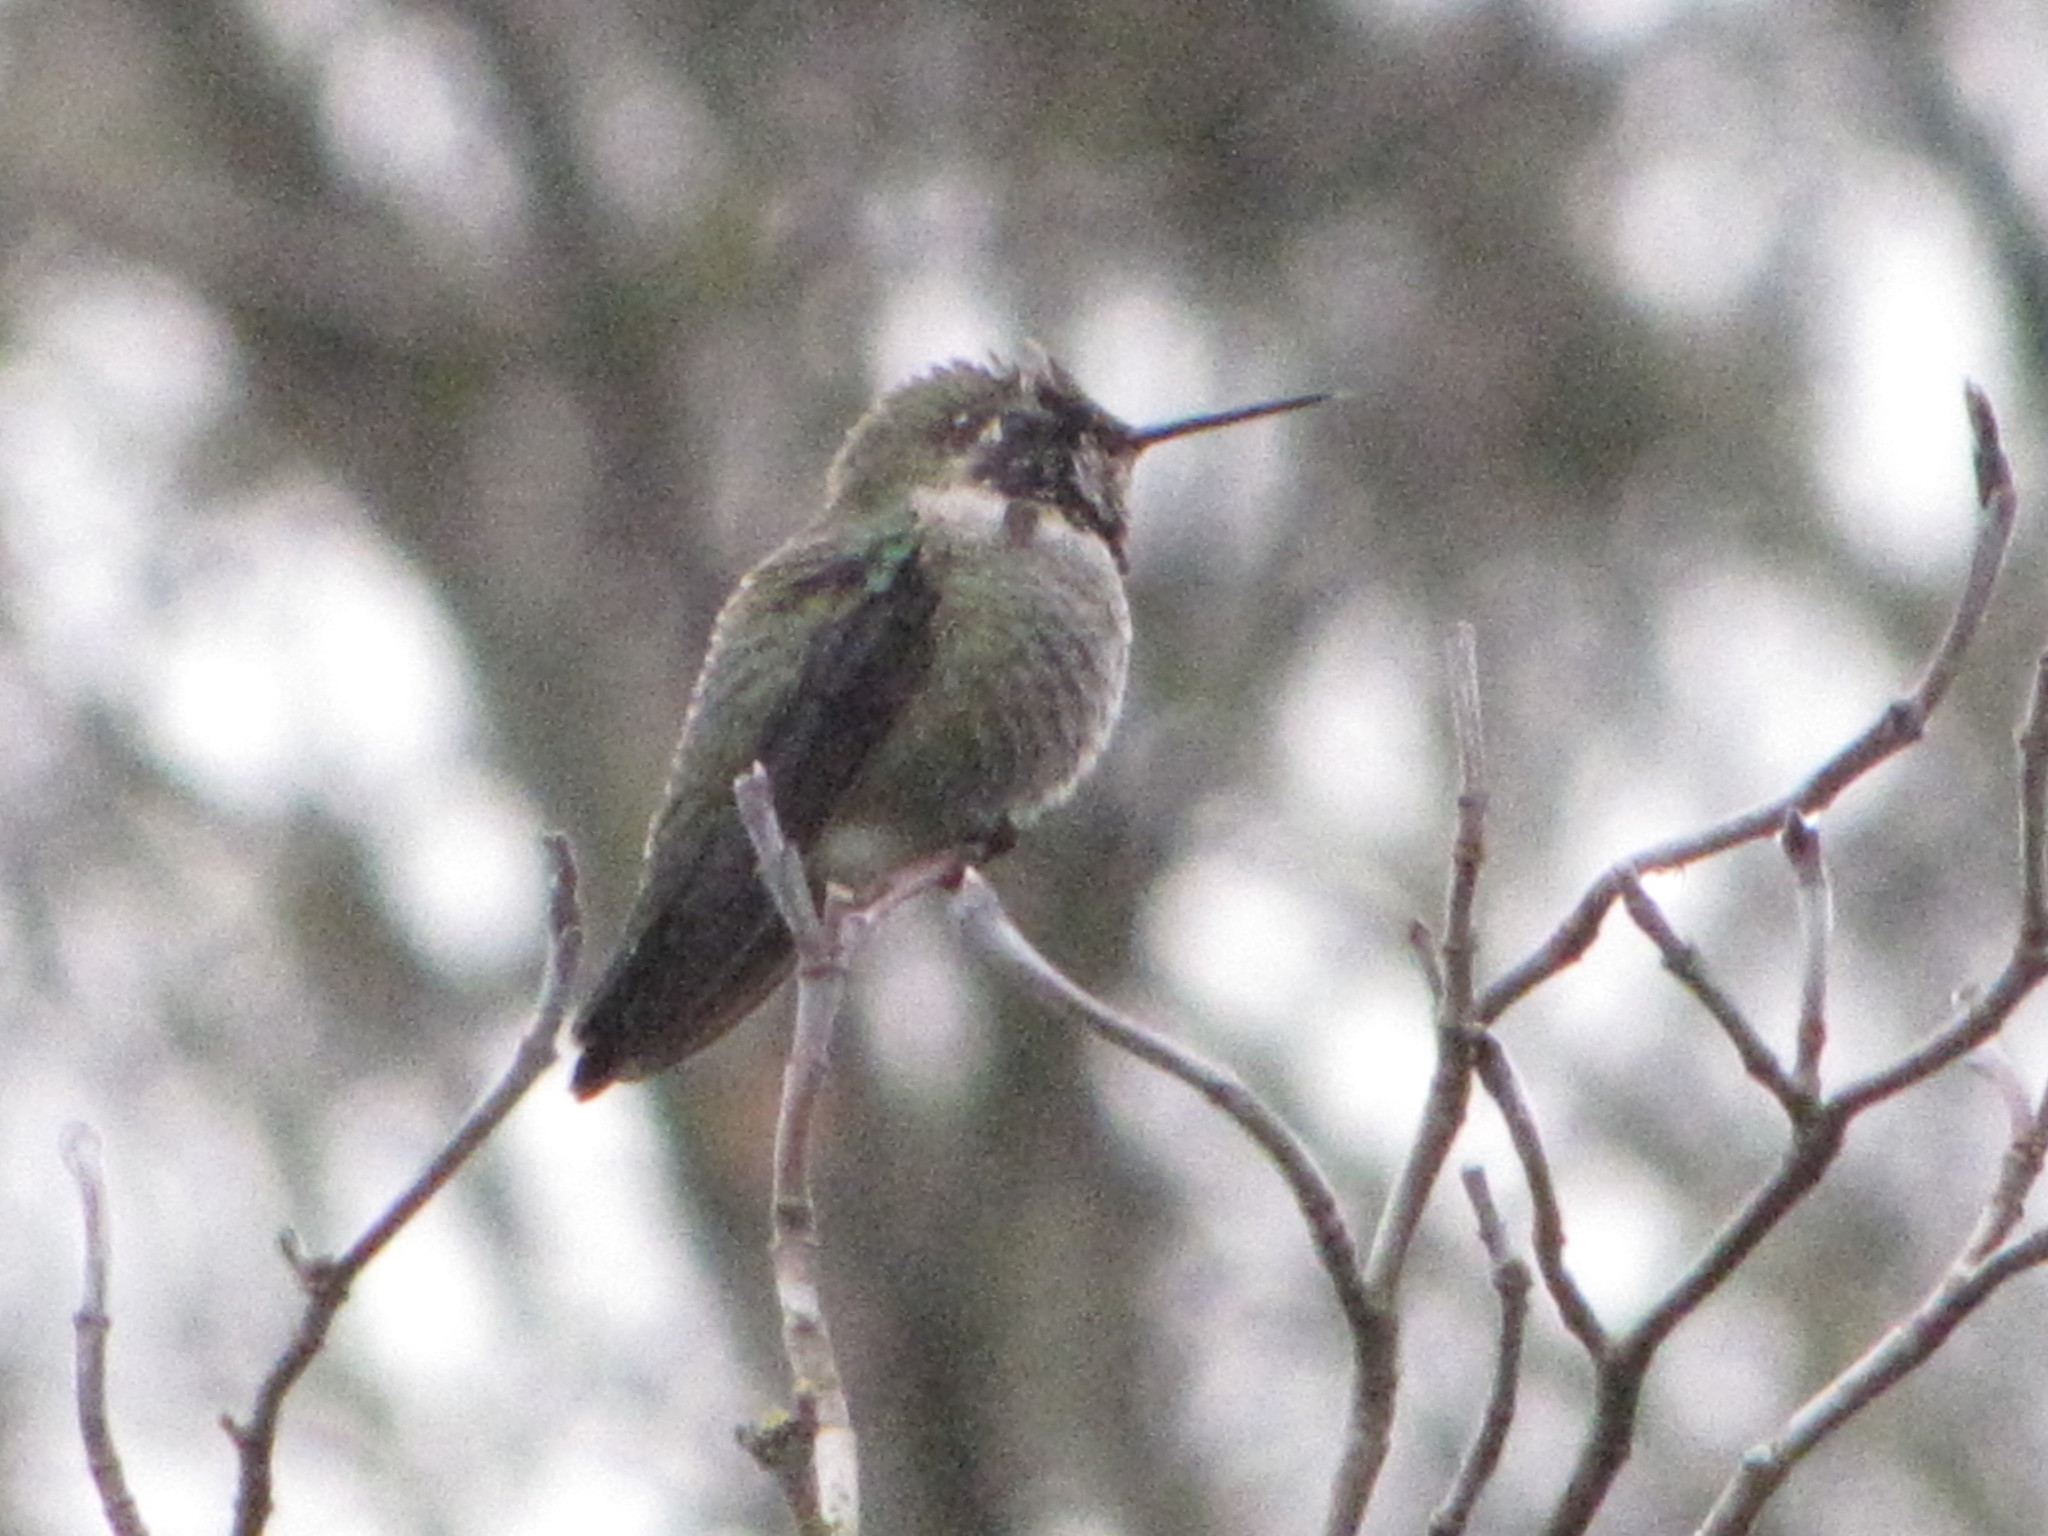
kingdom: Animalia
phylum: Chordata
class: Aves
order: Apodiformes
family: Trochilidae
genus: Calypte
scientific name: Calypte anna
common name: Anna's hummingbird
